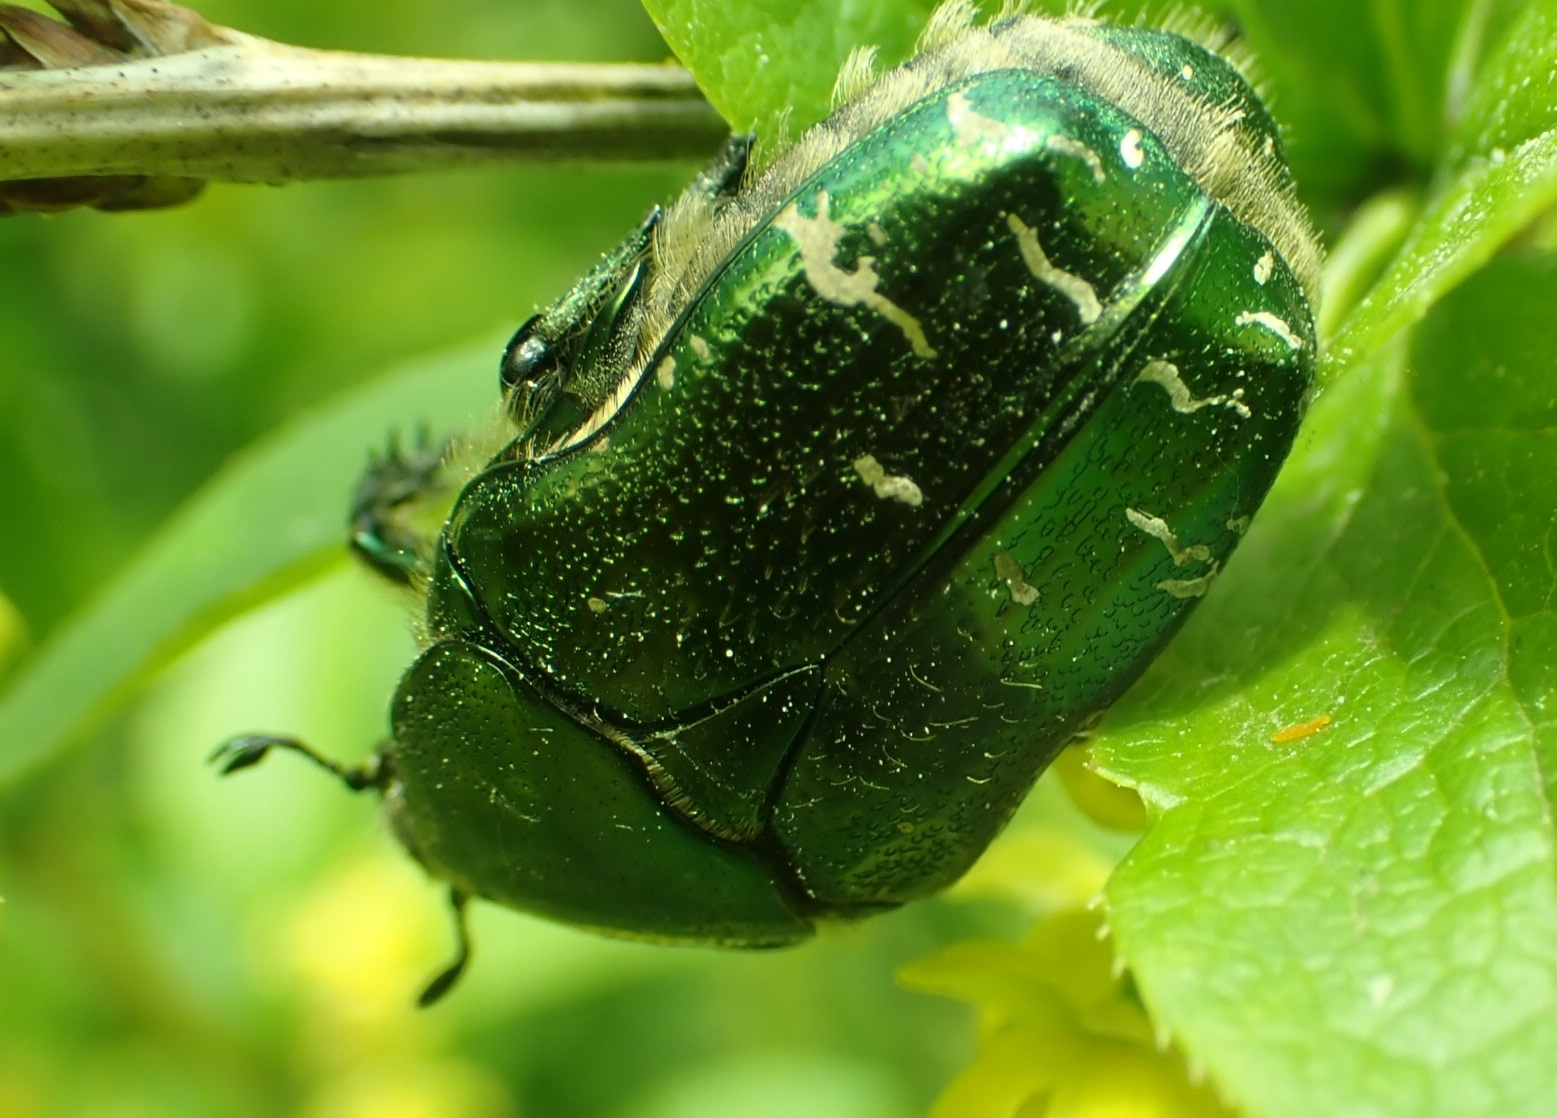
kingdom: Animalia
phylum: Arthropoda
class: Insecta
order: Coleoptera
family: Scarabaeidae
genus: Cetonia
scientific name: Cetonia aurata
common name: Rose chafer
